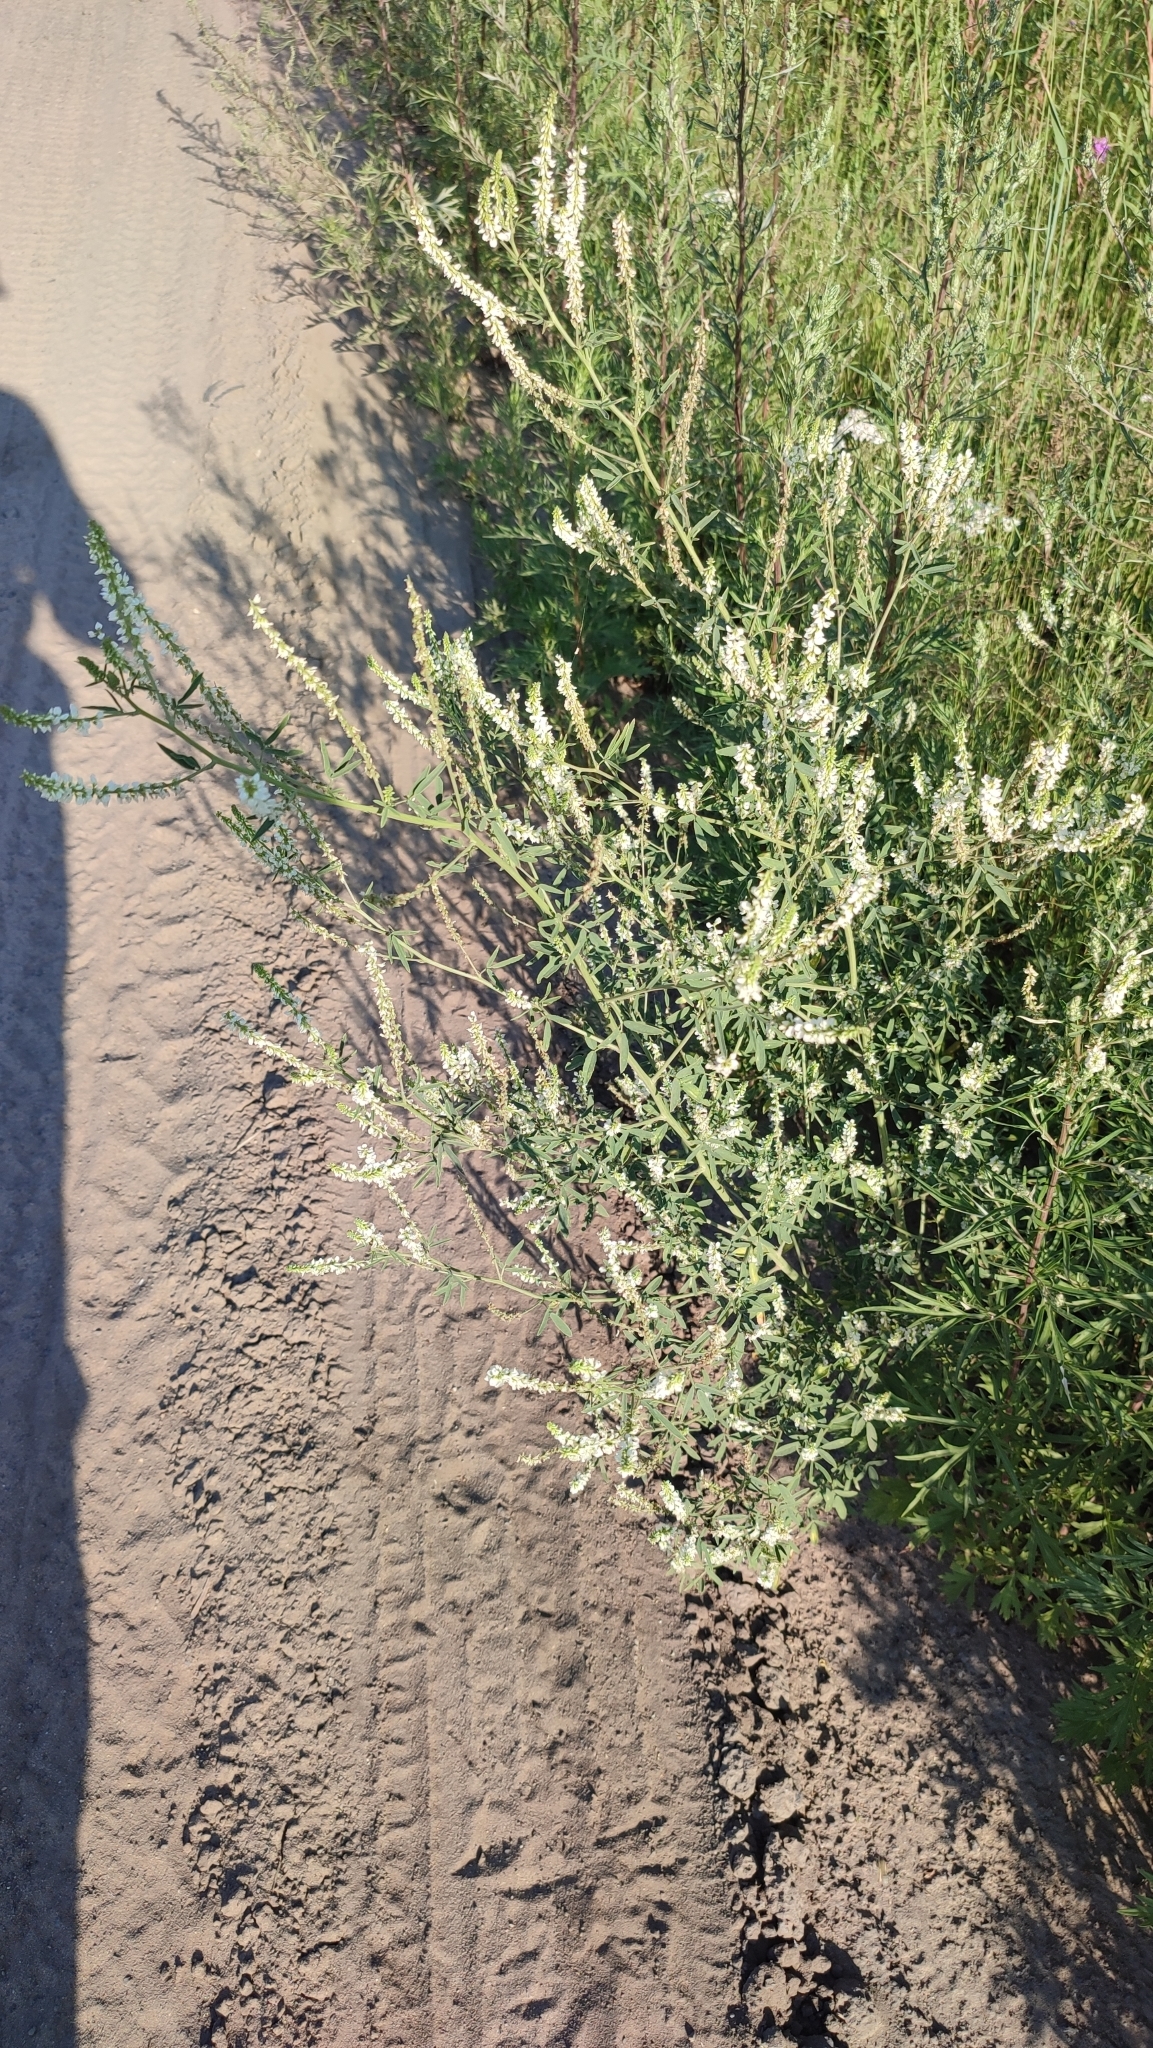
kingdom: Plantae
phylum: Tracheophyta
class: Magnoliopsida
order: Fabales
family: Fabaceae
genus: Melilotus
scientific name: Melilotus albus
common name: White melilot
